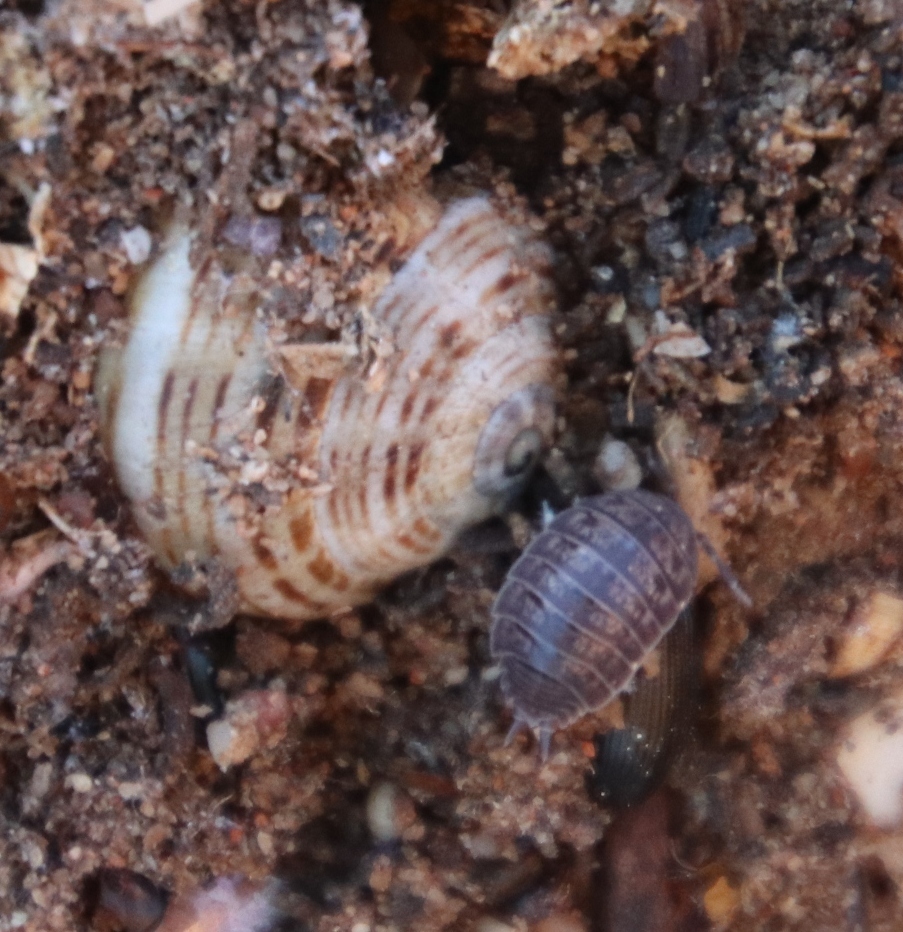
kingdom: Animalia
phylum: Mollusca
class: Gastropoda
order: Stylommatophora
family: Helicidae
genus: Theba
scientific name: Theba pisana
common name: White snail
